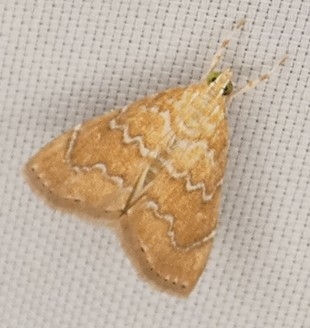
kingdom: Animalia
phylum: Arthropoda
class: Insecta
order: Lepidoptera
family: Crambidae
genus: Glaphyria
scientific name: Glaphyria sesquistrialis
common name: White-roped glaphyria
